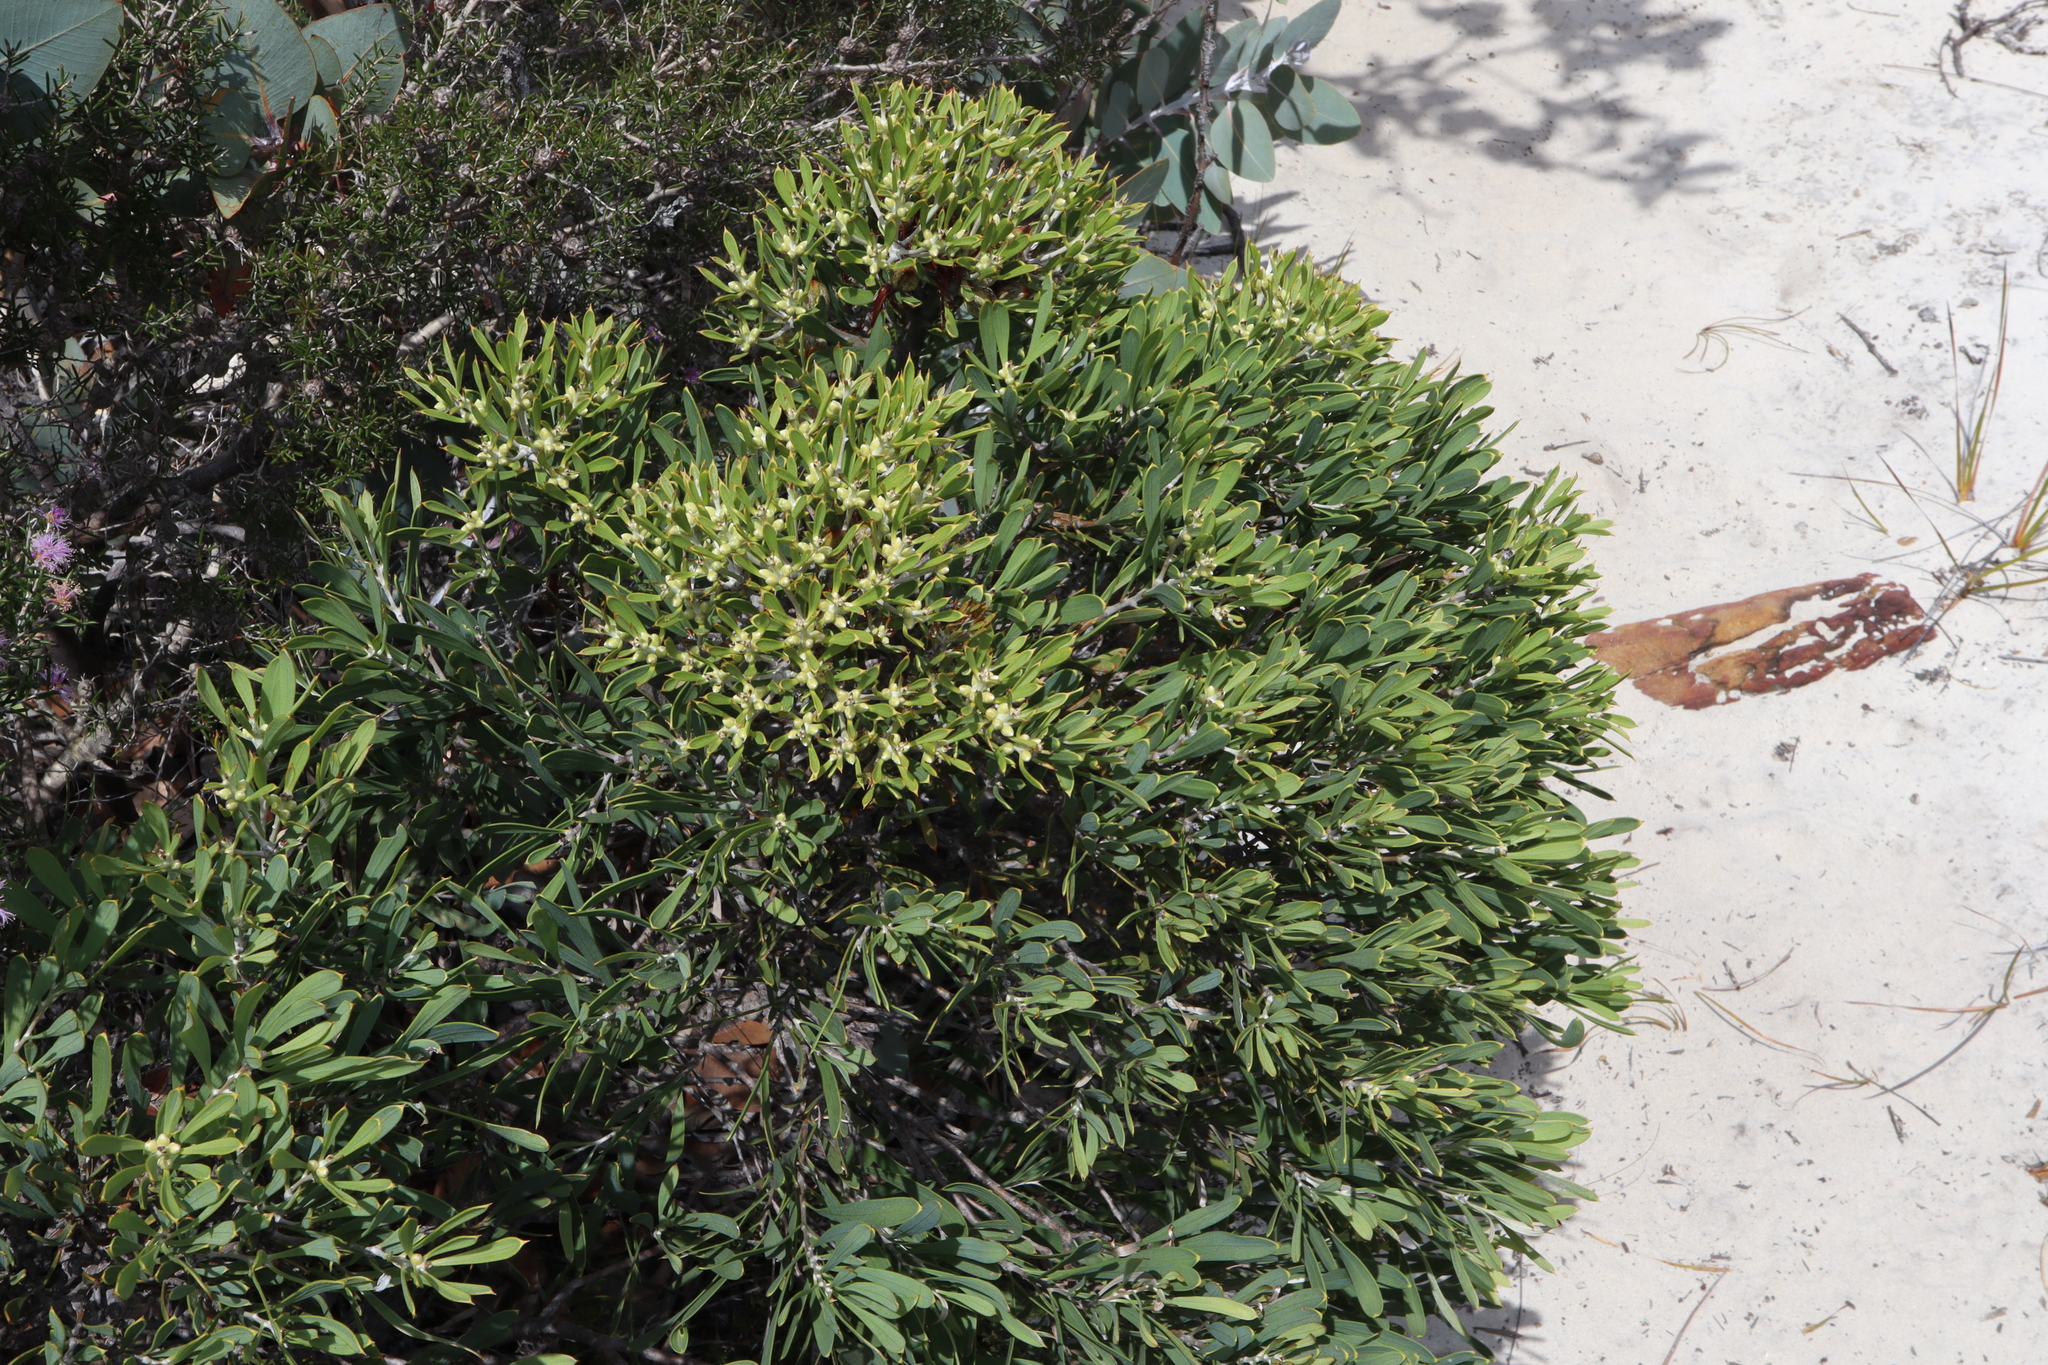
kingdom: Plantae
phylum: Tracheophyta
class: Magnoliopsida
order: Proteales
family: Proteaceae
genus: Hakea
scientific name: Hakea corymbosa
